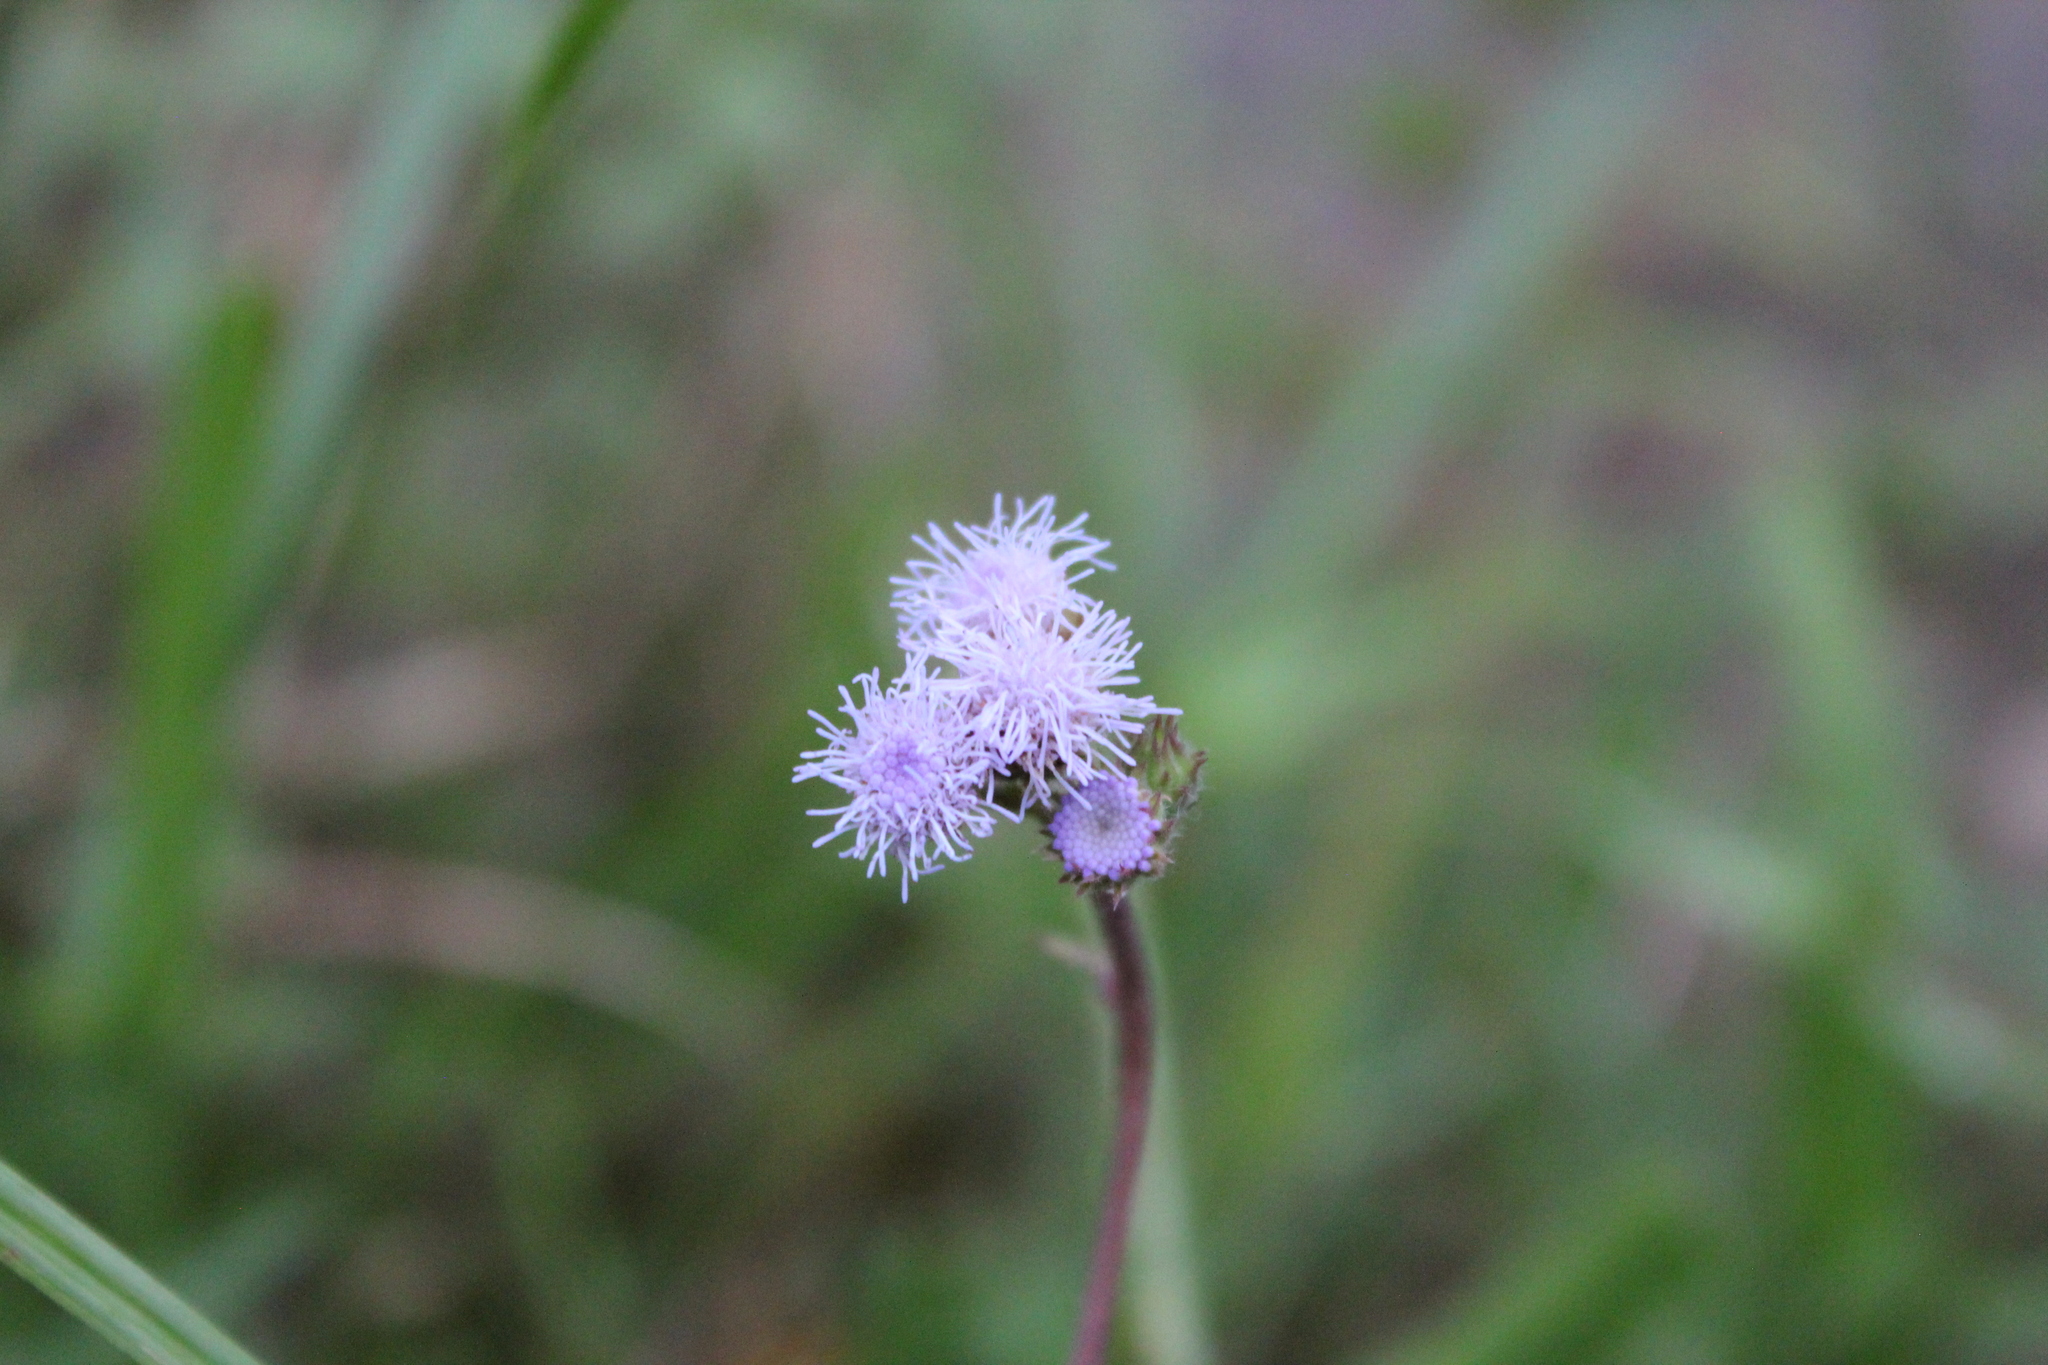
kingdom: Plantae
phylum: Tracheophyta
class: Magnoliopsida
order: Asterales
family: Asteraceae
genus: Ageratum
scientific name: Ageratum conyzoides
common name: Tropical whiteweed
